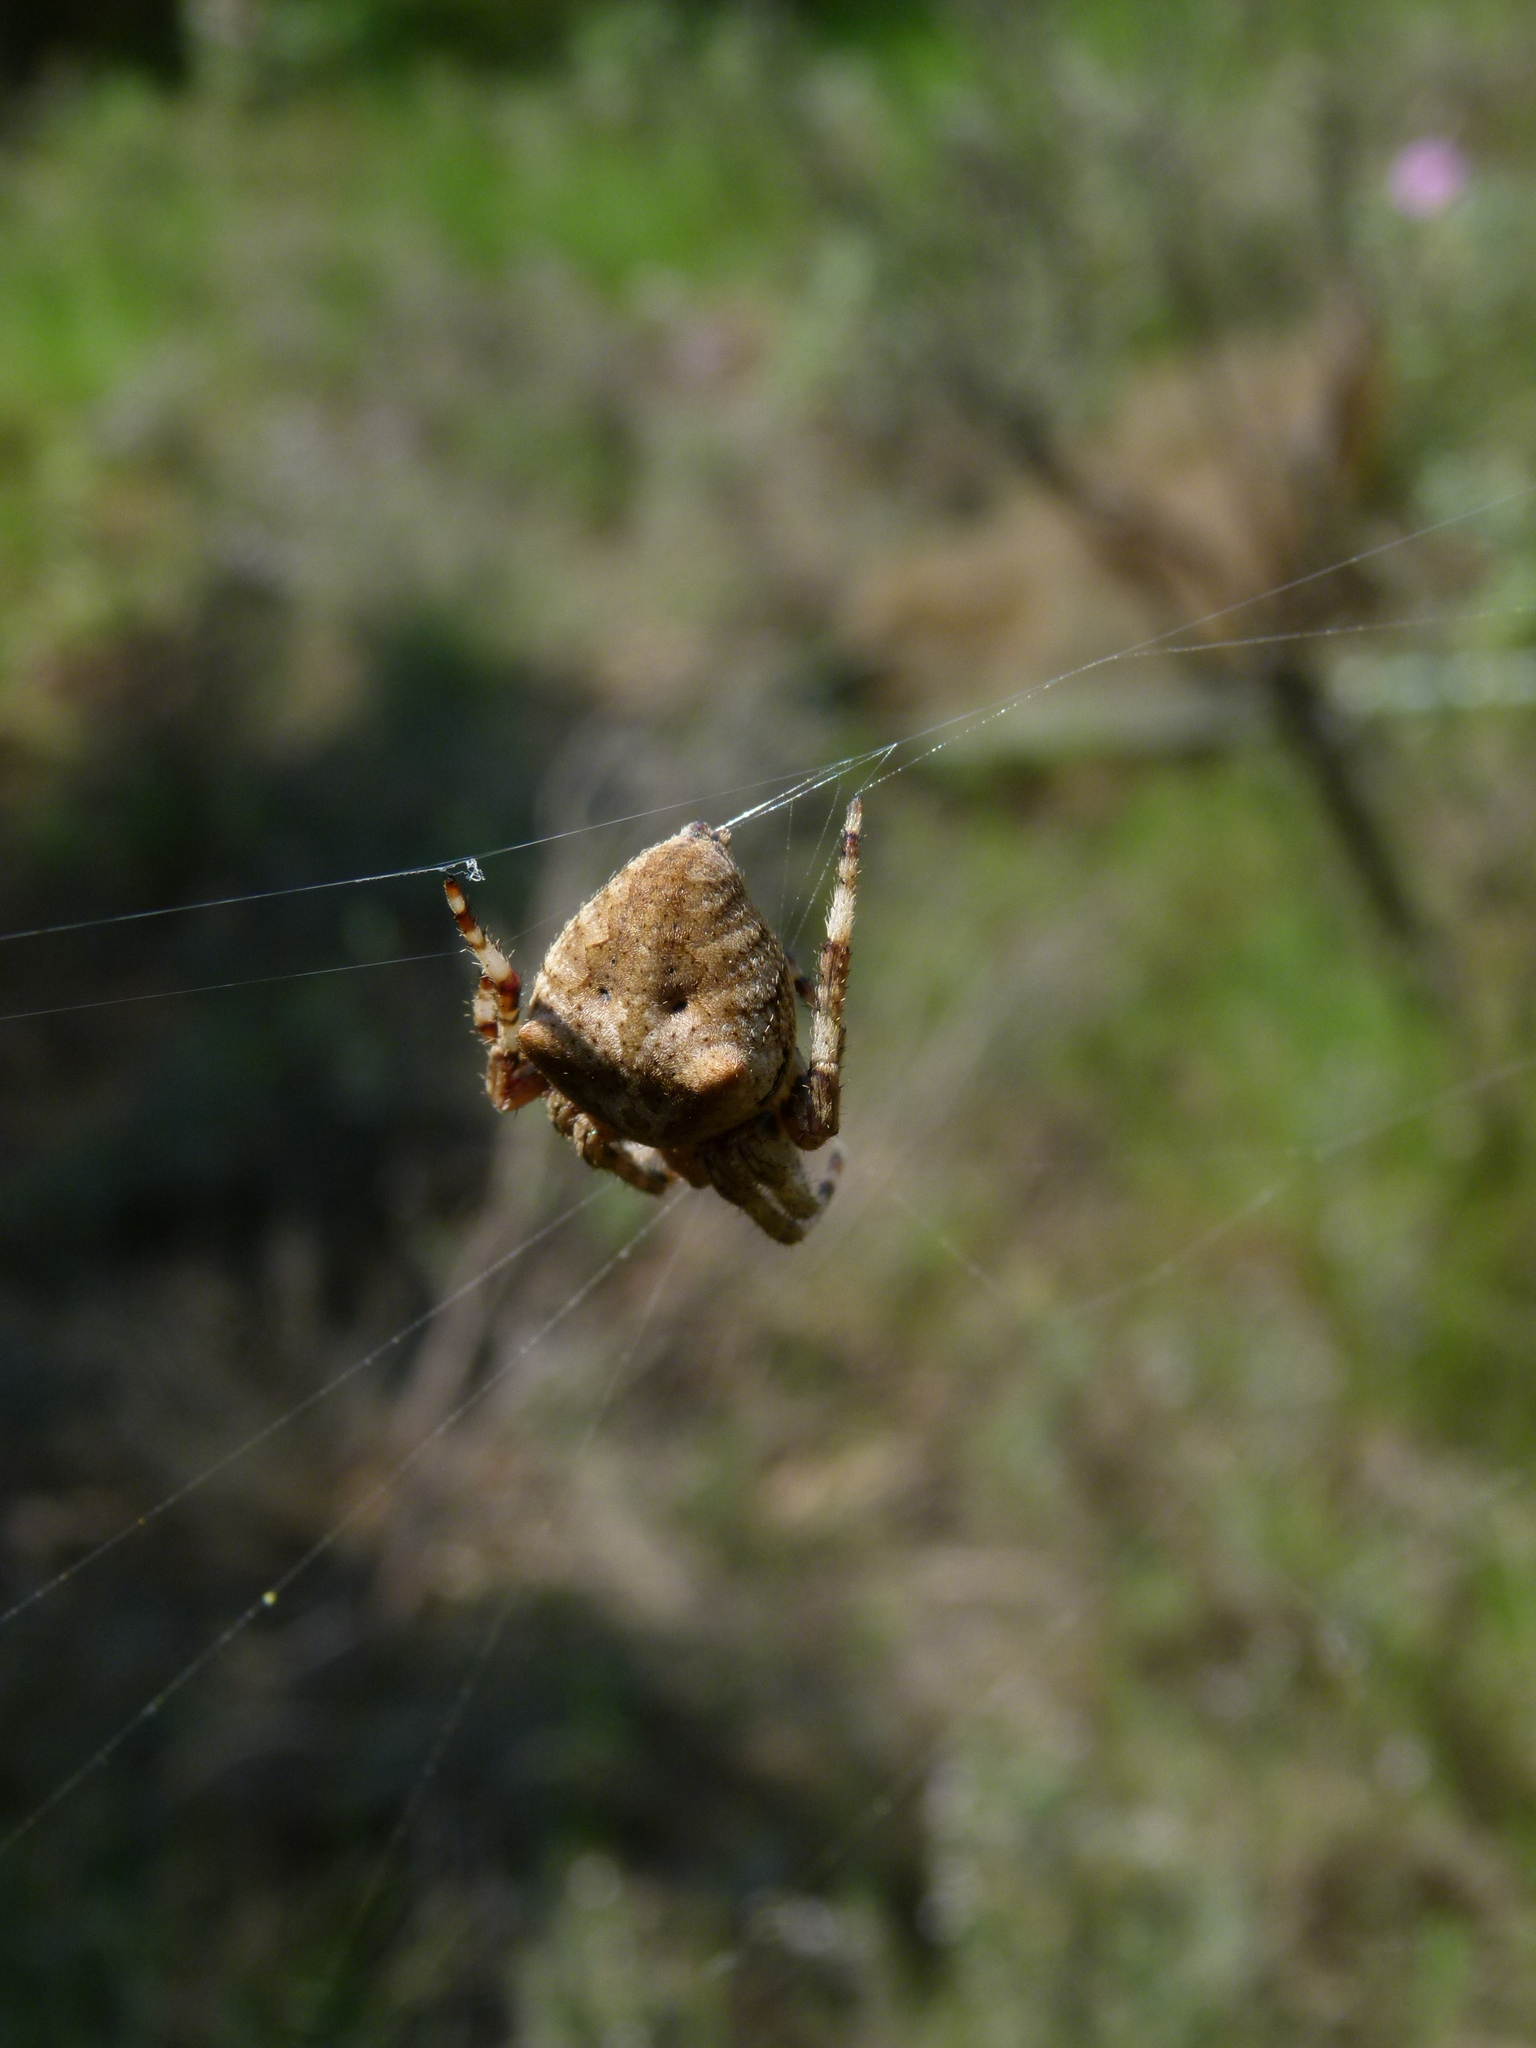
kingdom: Animalia
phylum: Arthropoda
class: Arachnida
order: Araneae
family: Araneidae
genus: Araneus
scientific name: Araneus angulatus
